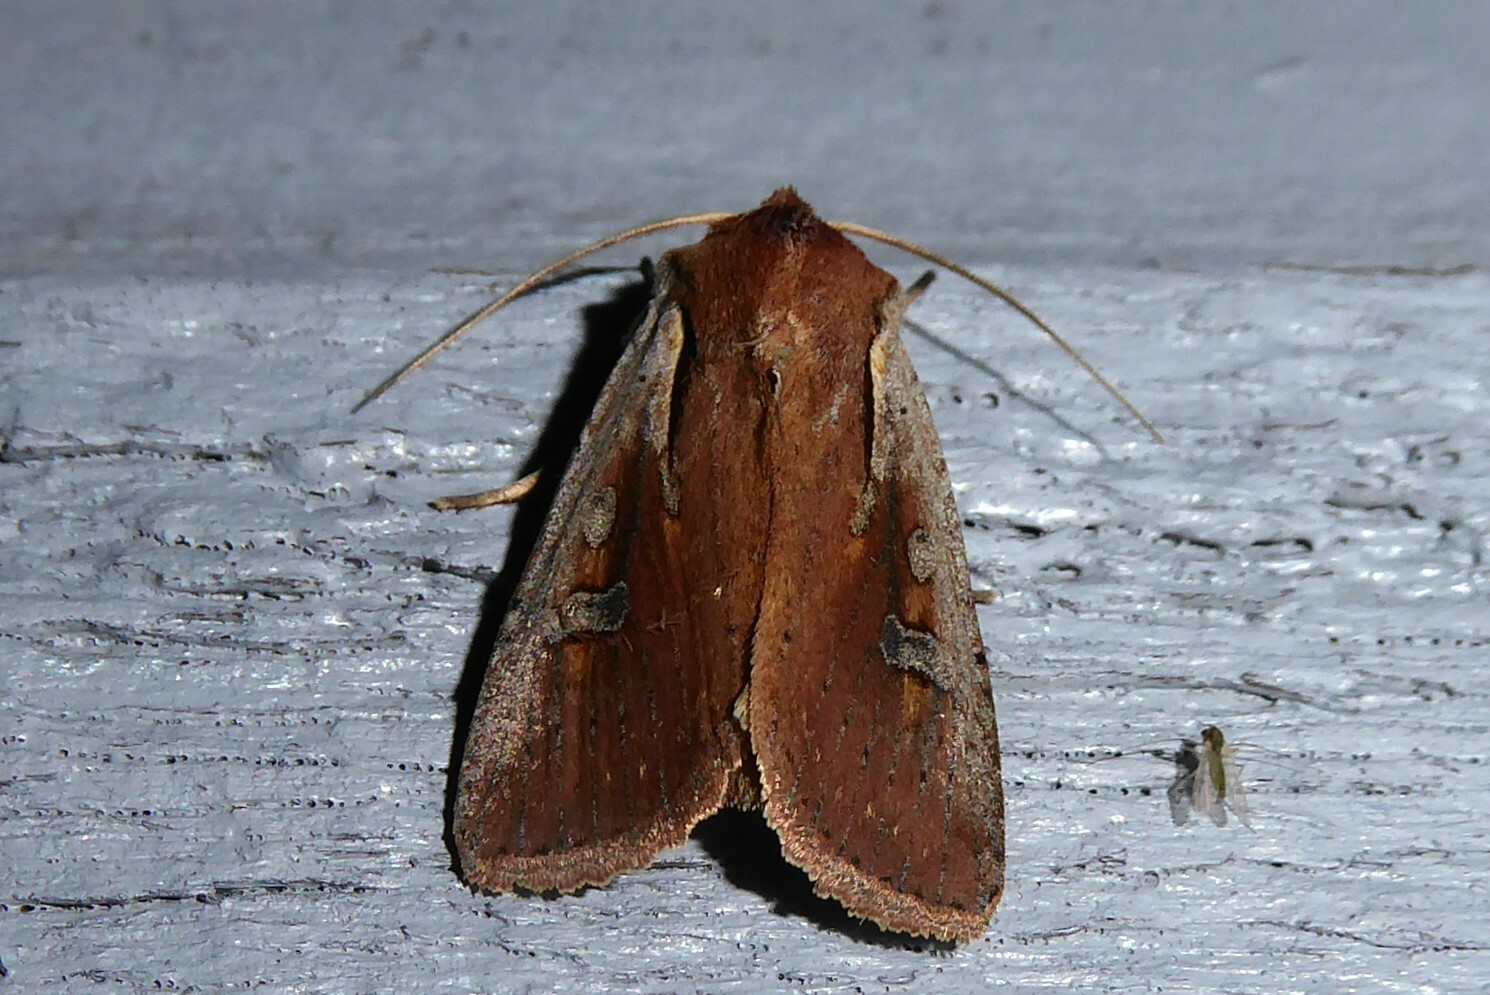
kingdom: Animalia
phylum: Arthropoda
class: Insecta
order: Lepidoptera
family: Noctuidae
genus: Ichneutica
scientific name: Ichneutica atristriga
